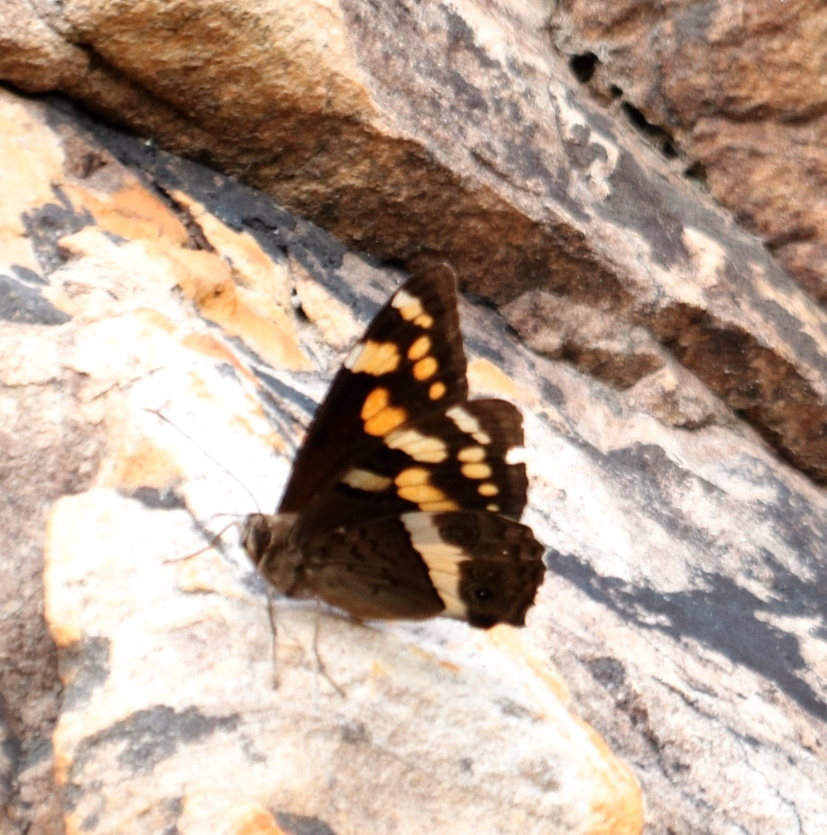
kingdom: Animalia
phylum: Arthropoda
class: Insecta
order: Lepidoptera
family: Nymphalidae
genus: Meneris
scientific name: Meneris Aeropetes tulbaghia
